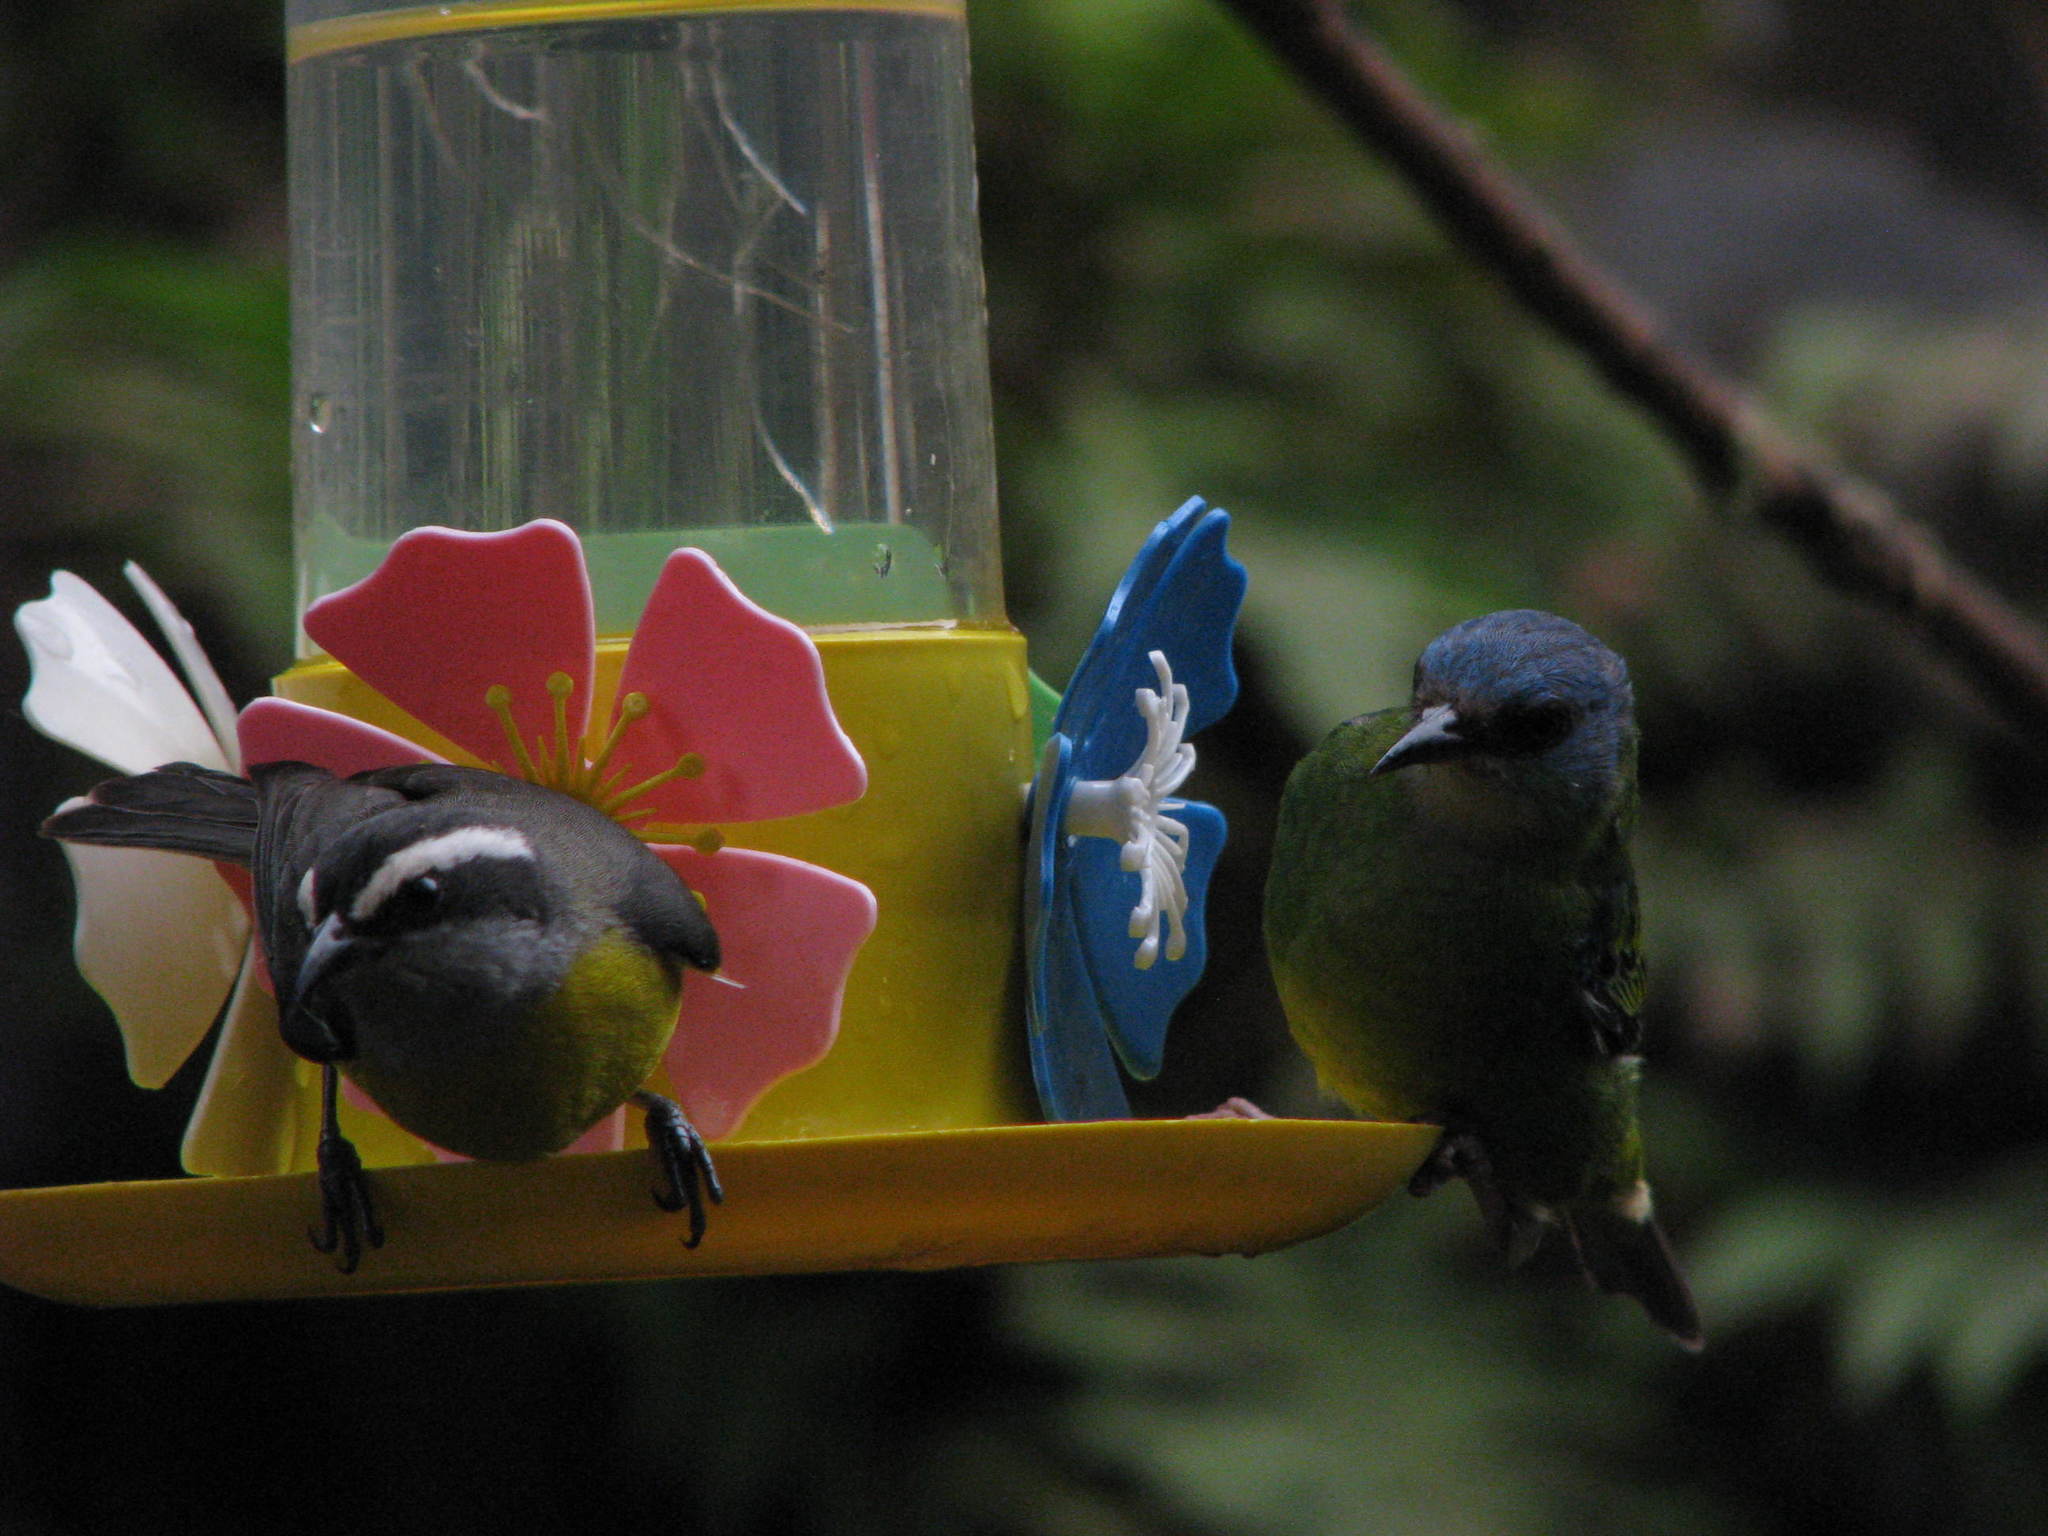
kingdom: Animalia
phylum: Chordata
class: Aves
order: Passeriformes
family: Thraupidae
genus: Coereba
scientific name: Coereba flaveola
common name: Bananaquit
